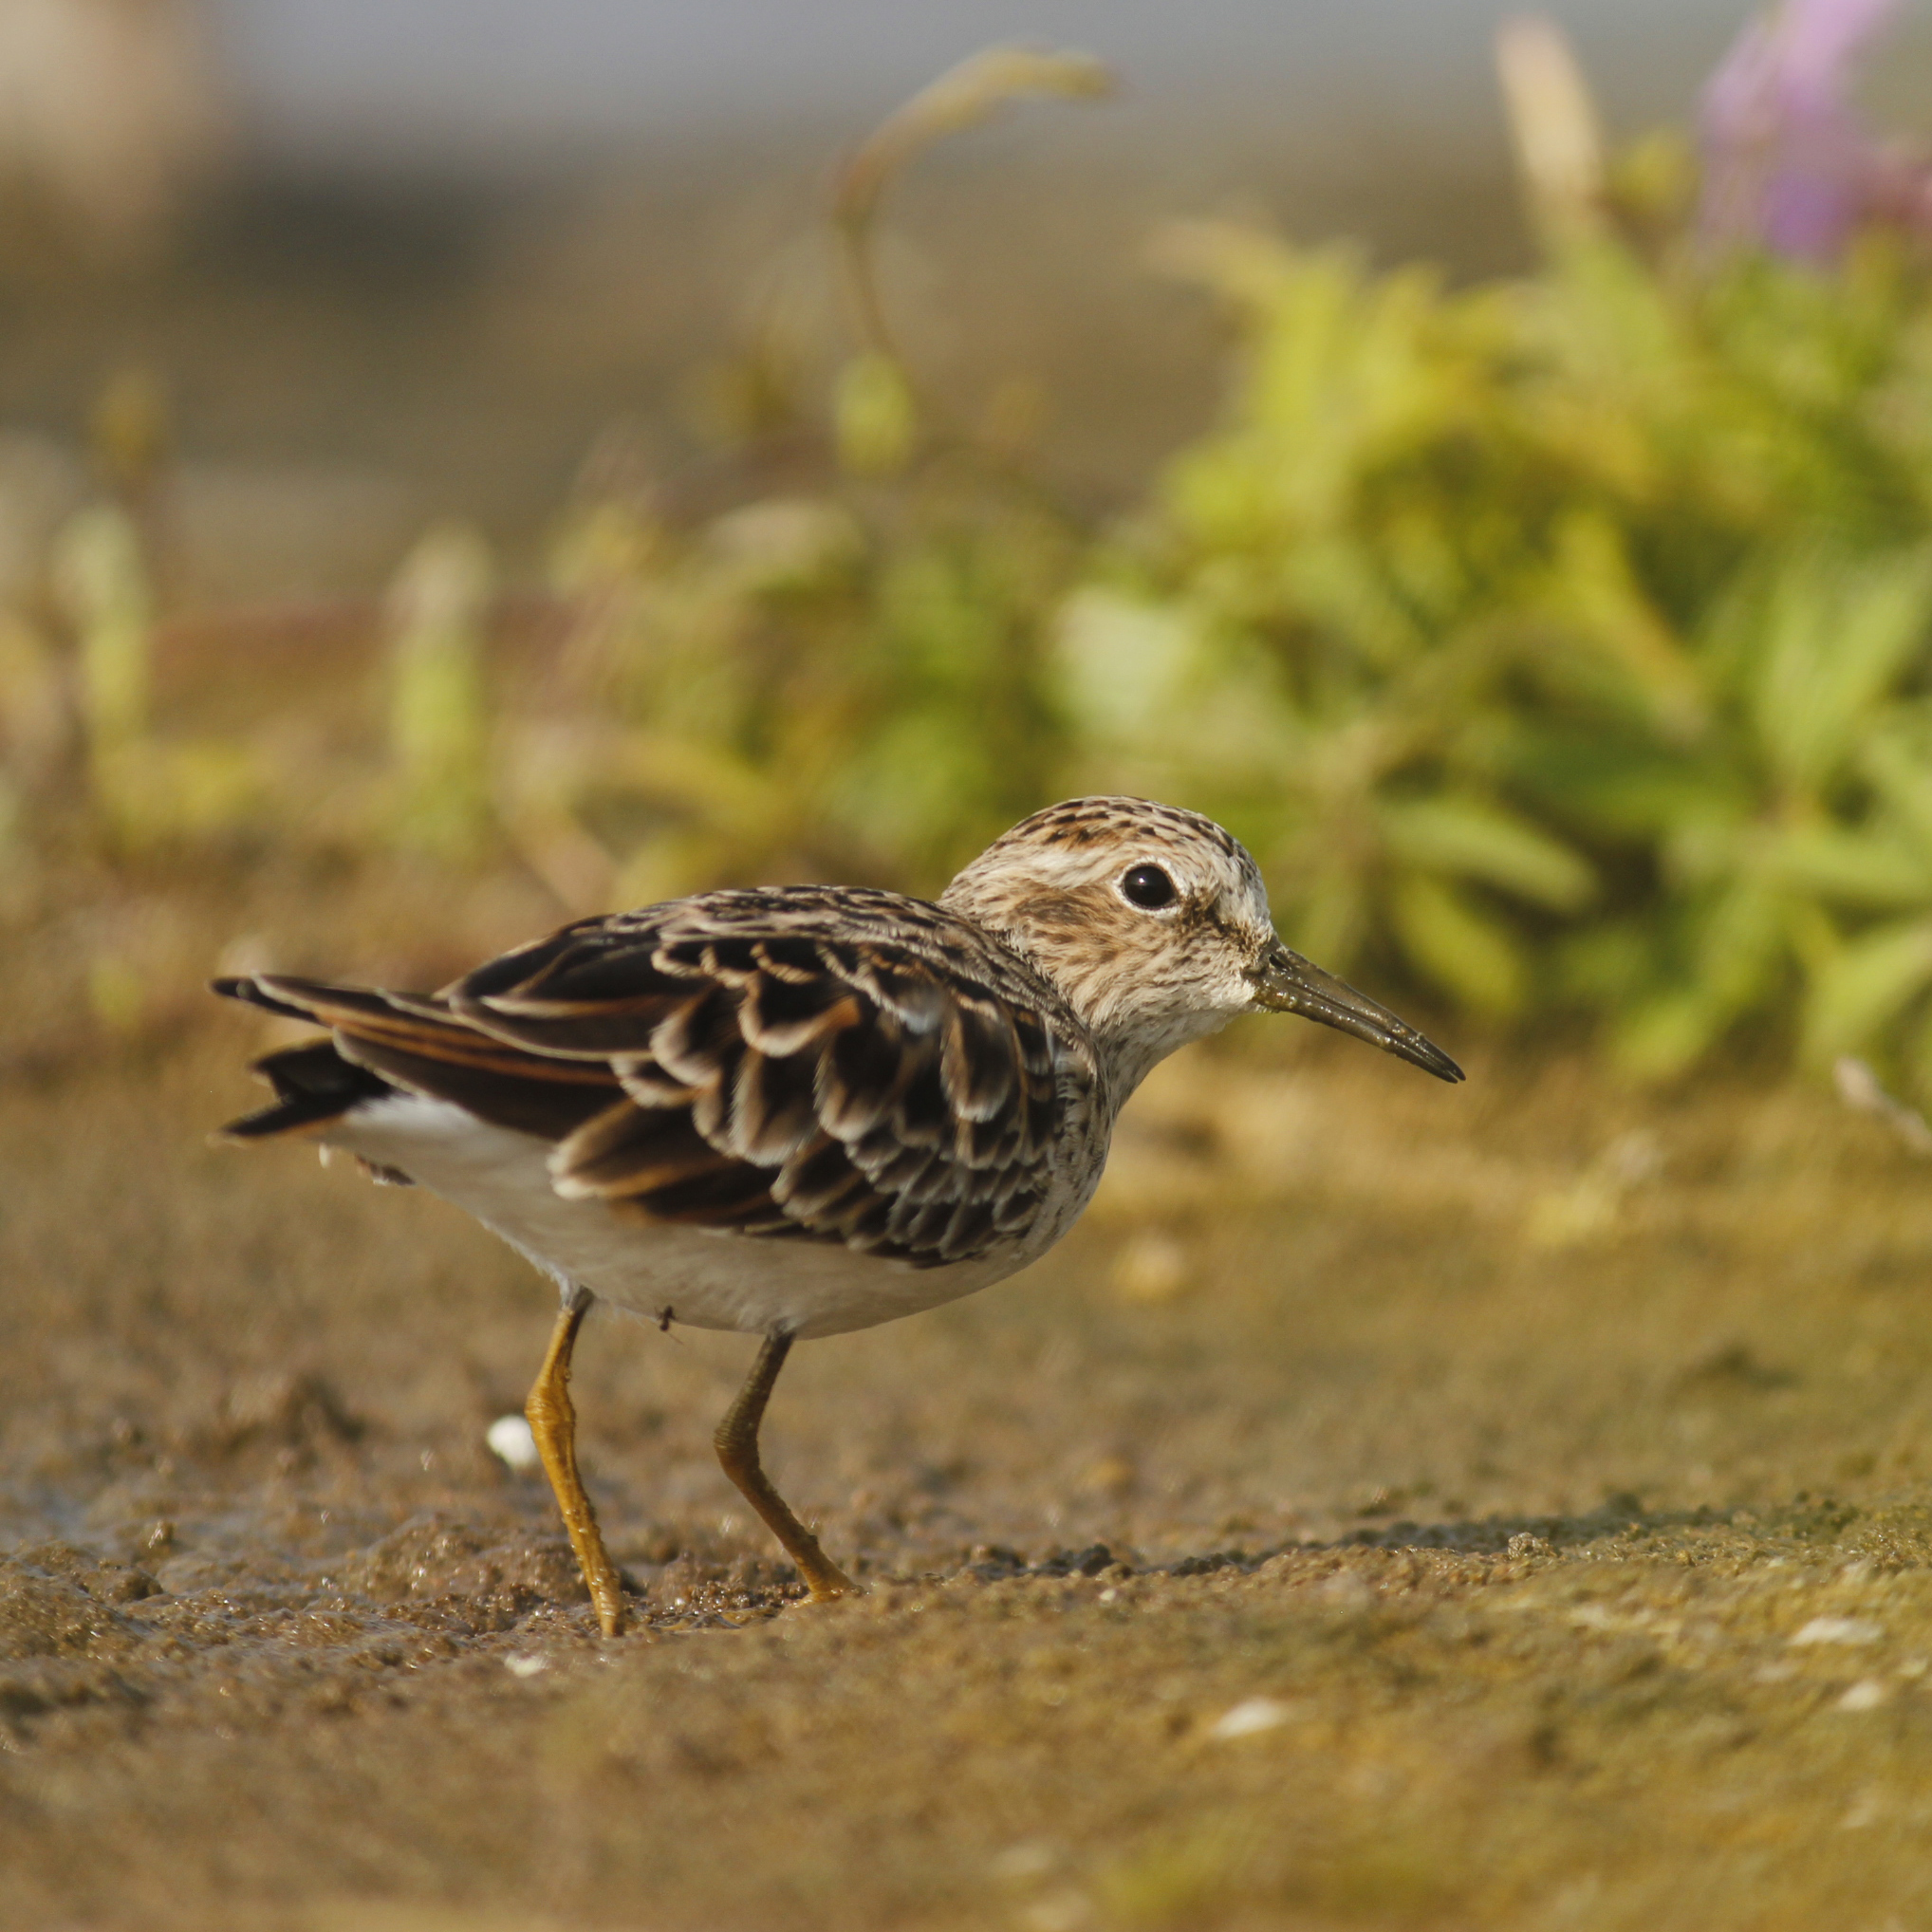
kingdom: Animalia
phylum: Chordata
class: Aves
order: Charadriiformes
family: Scolopacidae
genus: Calidris
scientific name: Calidris minutilla
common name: Least sandpiper
